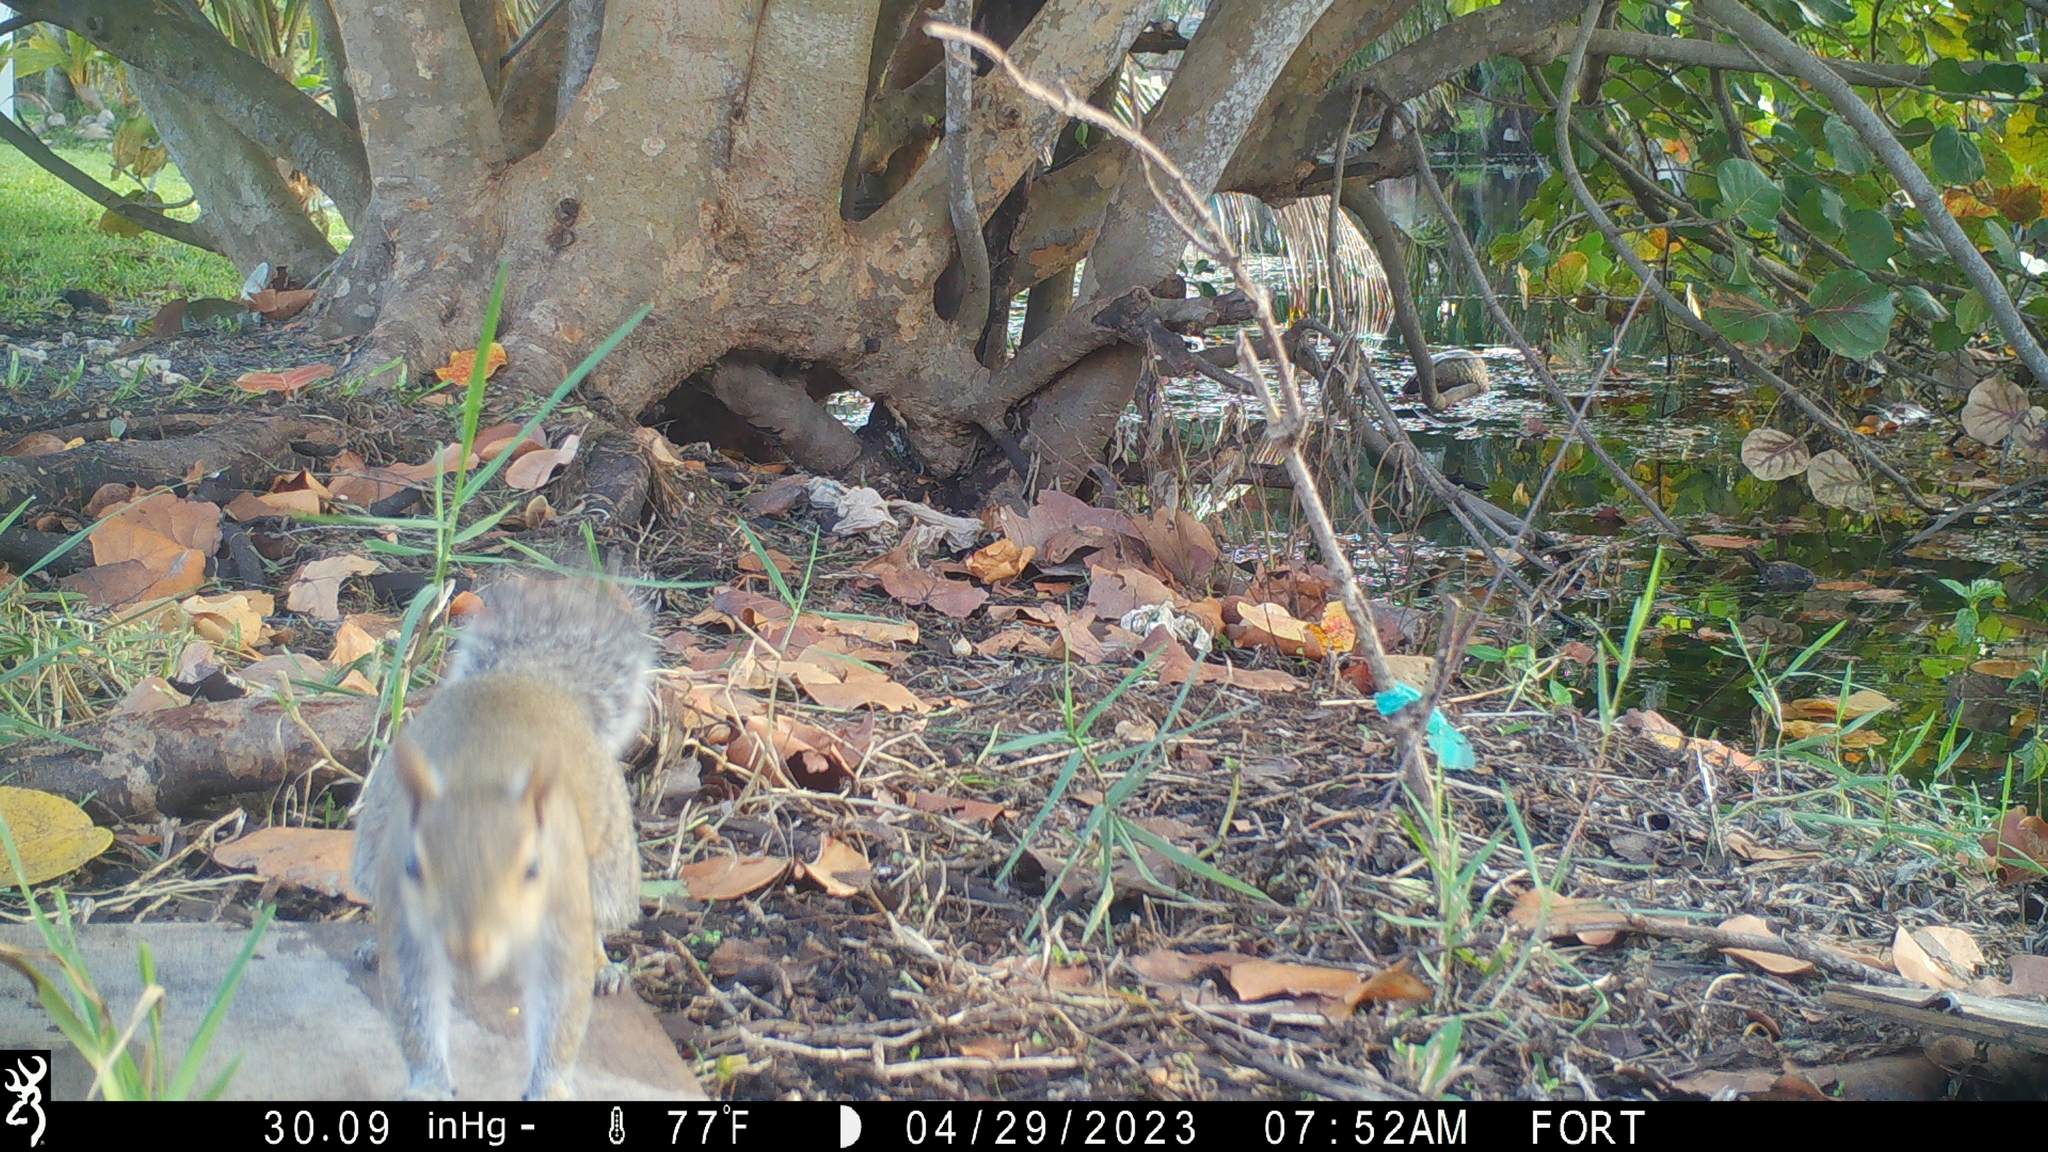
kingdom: Animalia
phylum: Chordata
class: Mammalia
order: Rodentia
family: Sciuridae
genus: Sciurus
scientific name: Sciurus carolinensis
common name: Eastern gray squirrel
